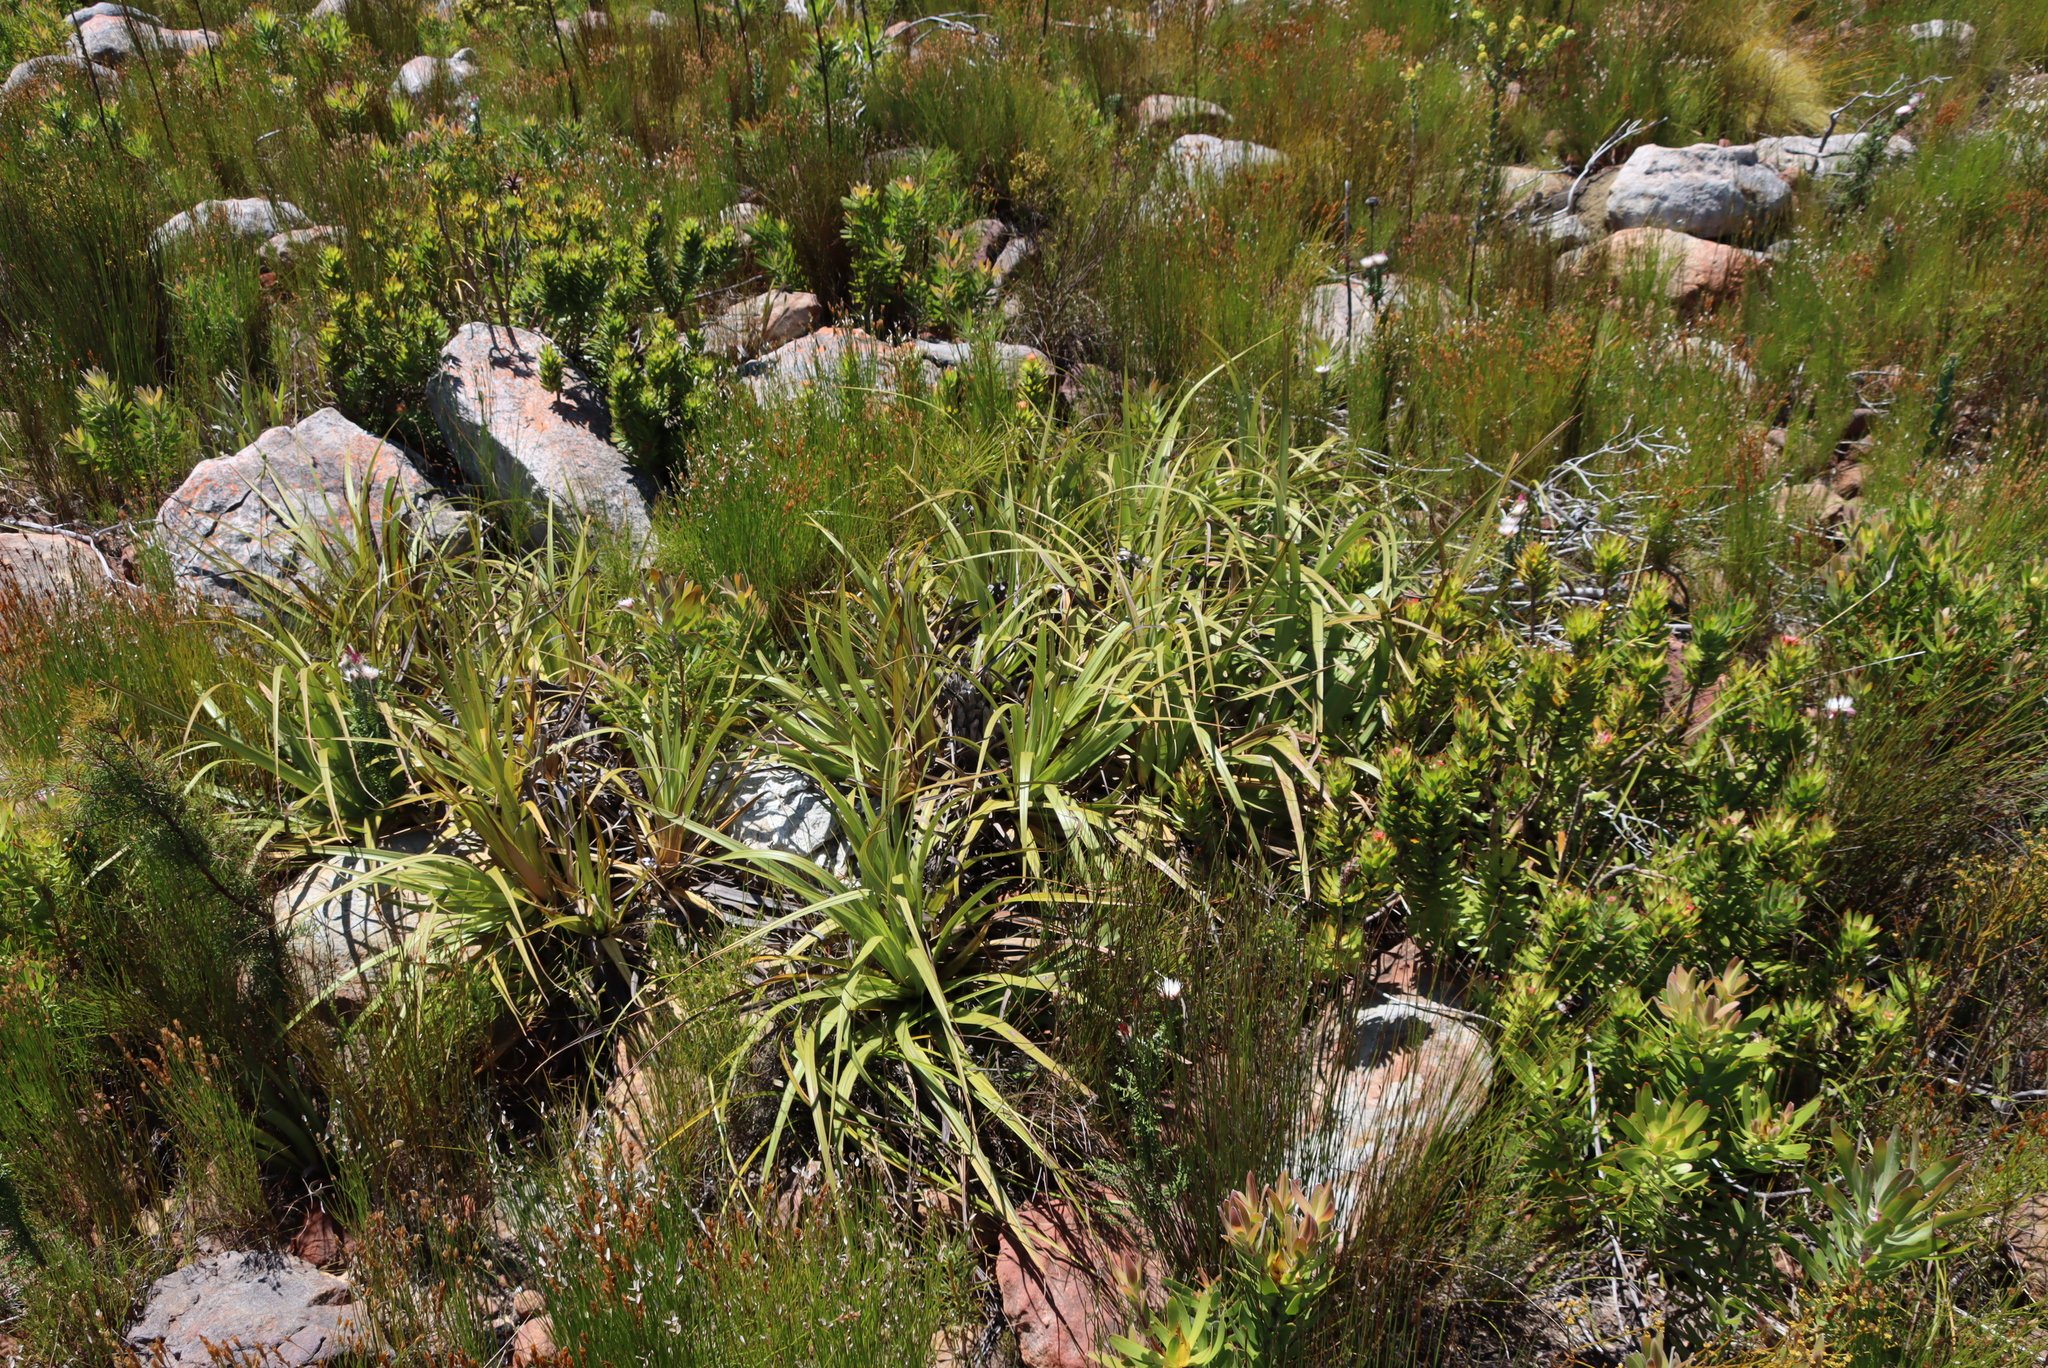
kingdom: Plantae
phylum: Tracheophyta
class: Liliopsida
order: Poales
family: Cyperaceae
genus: Tetraria
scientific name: Tetraria thermalis
